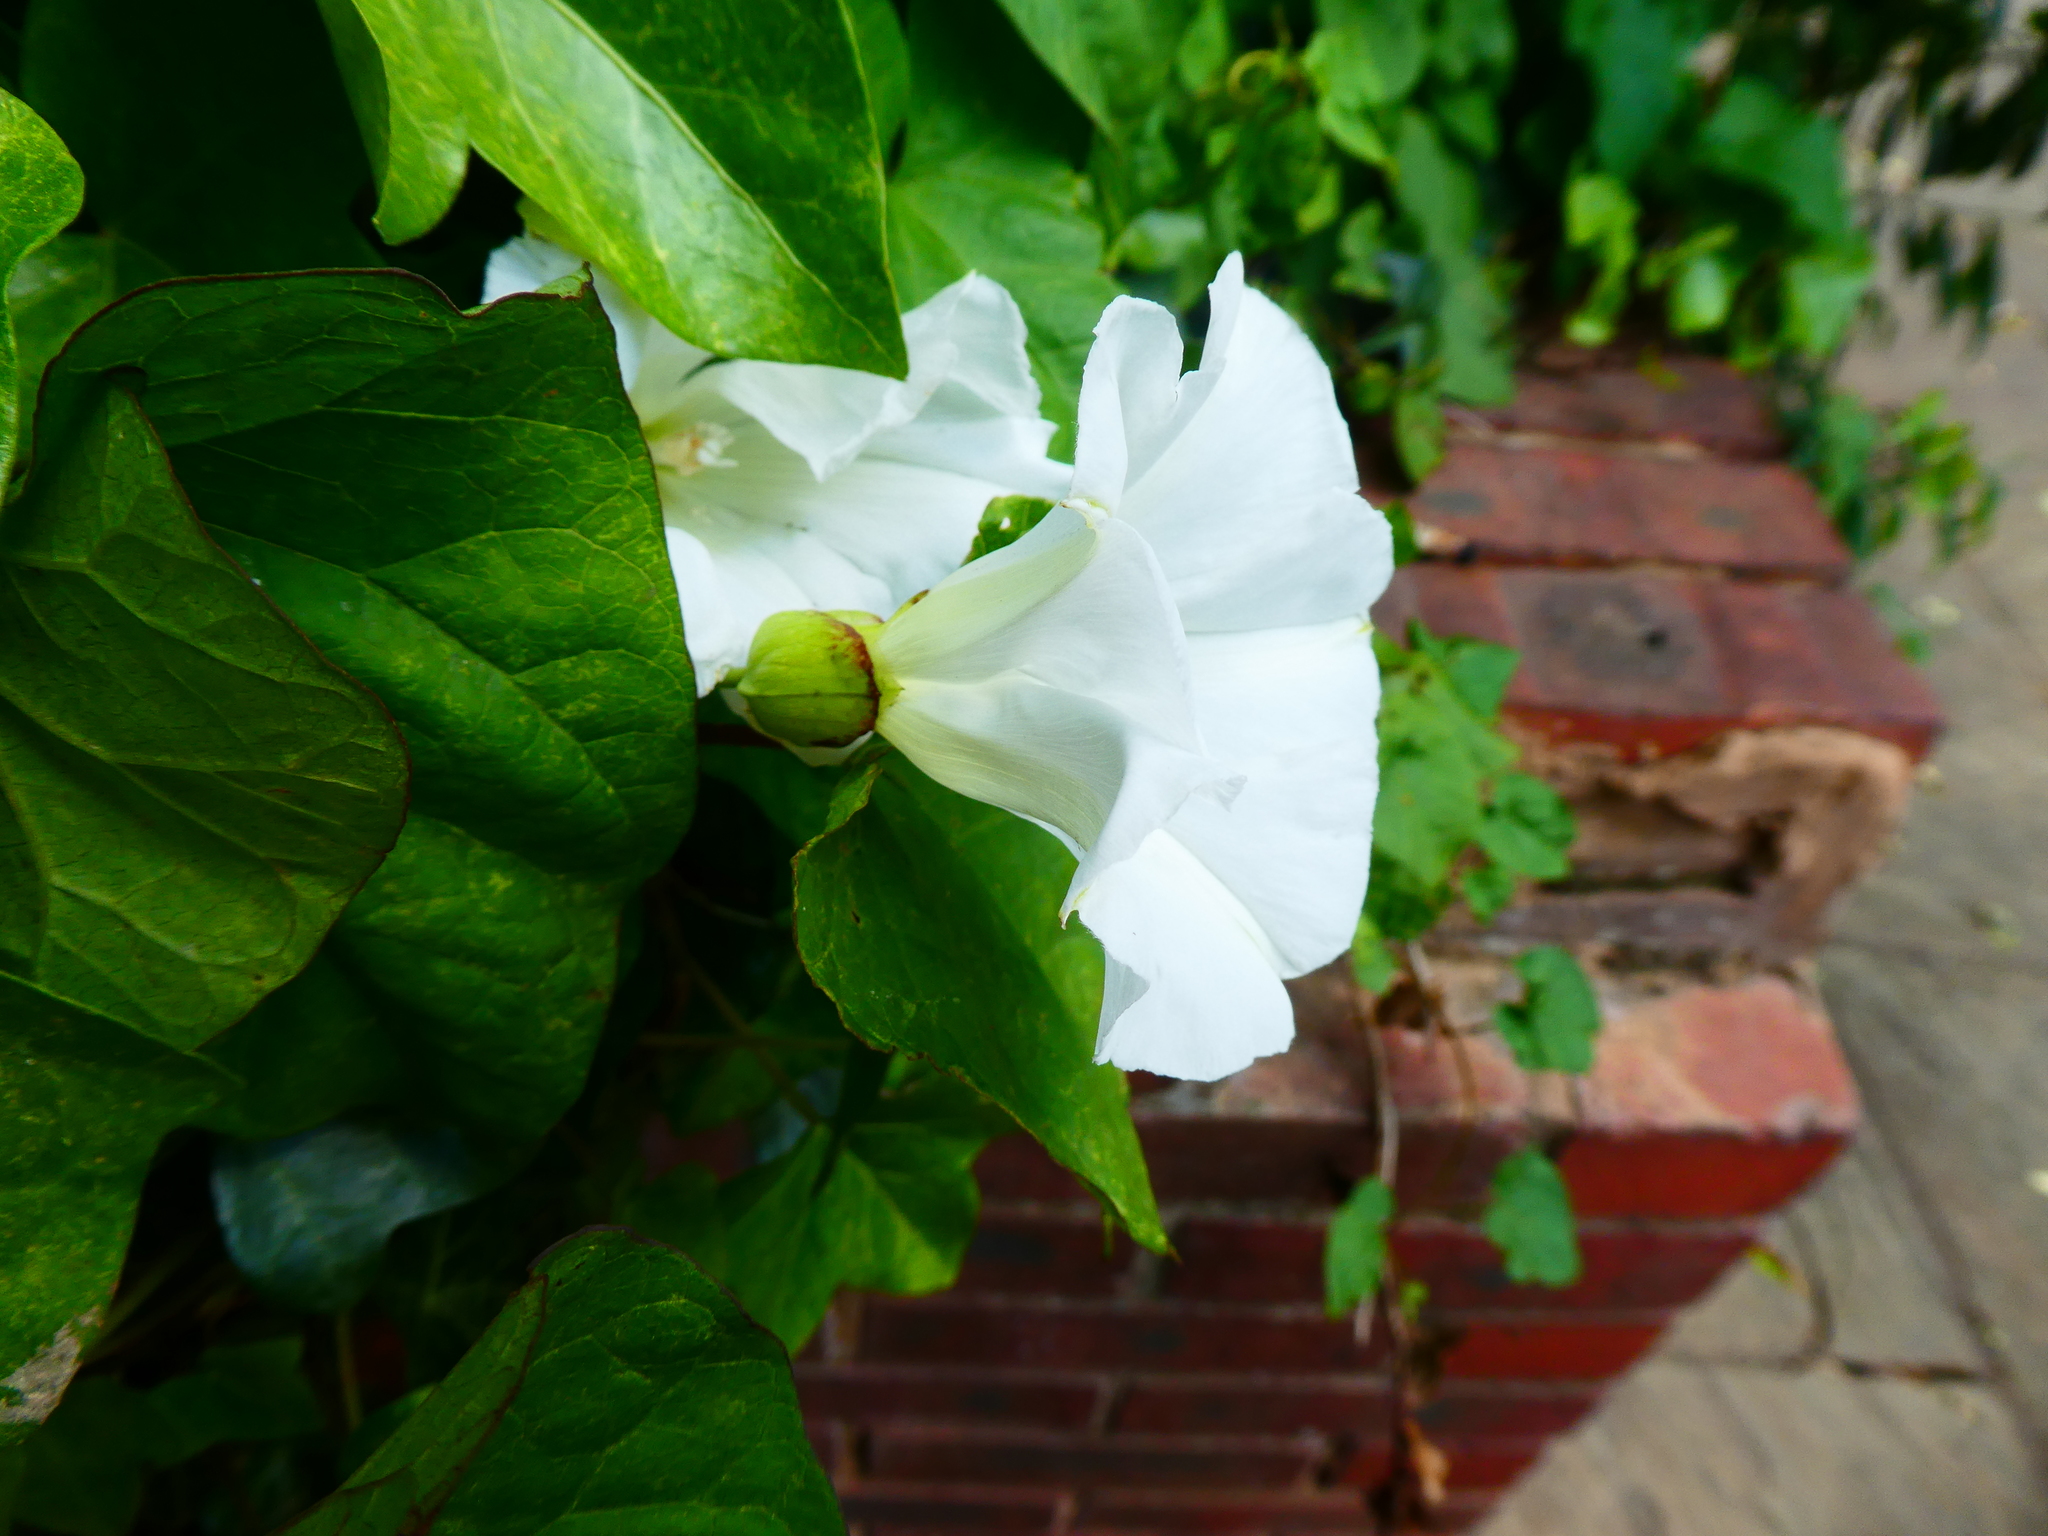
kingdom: Plantae
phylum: Tracheophyta
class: Magnoliopsida
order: Solanales
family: Convolvulaceae
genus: Calystegia
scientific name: Calystegia silvatica
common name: Large bindweed
